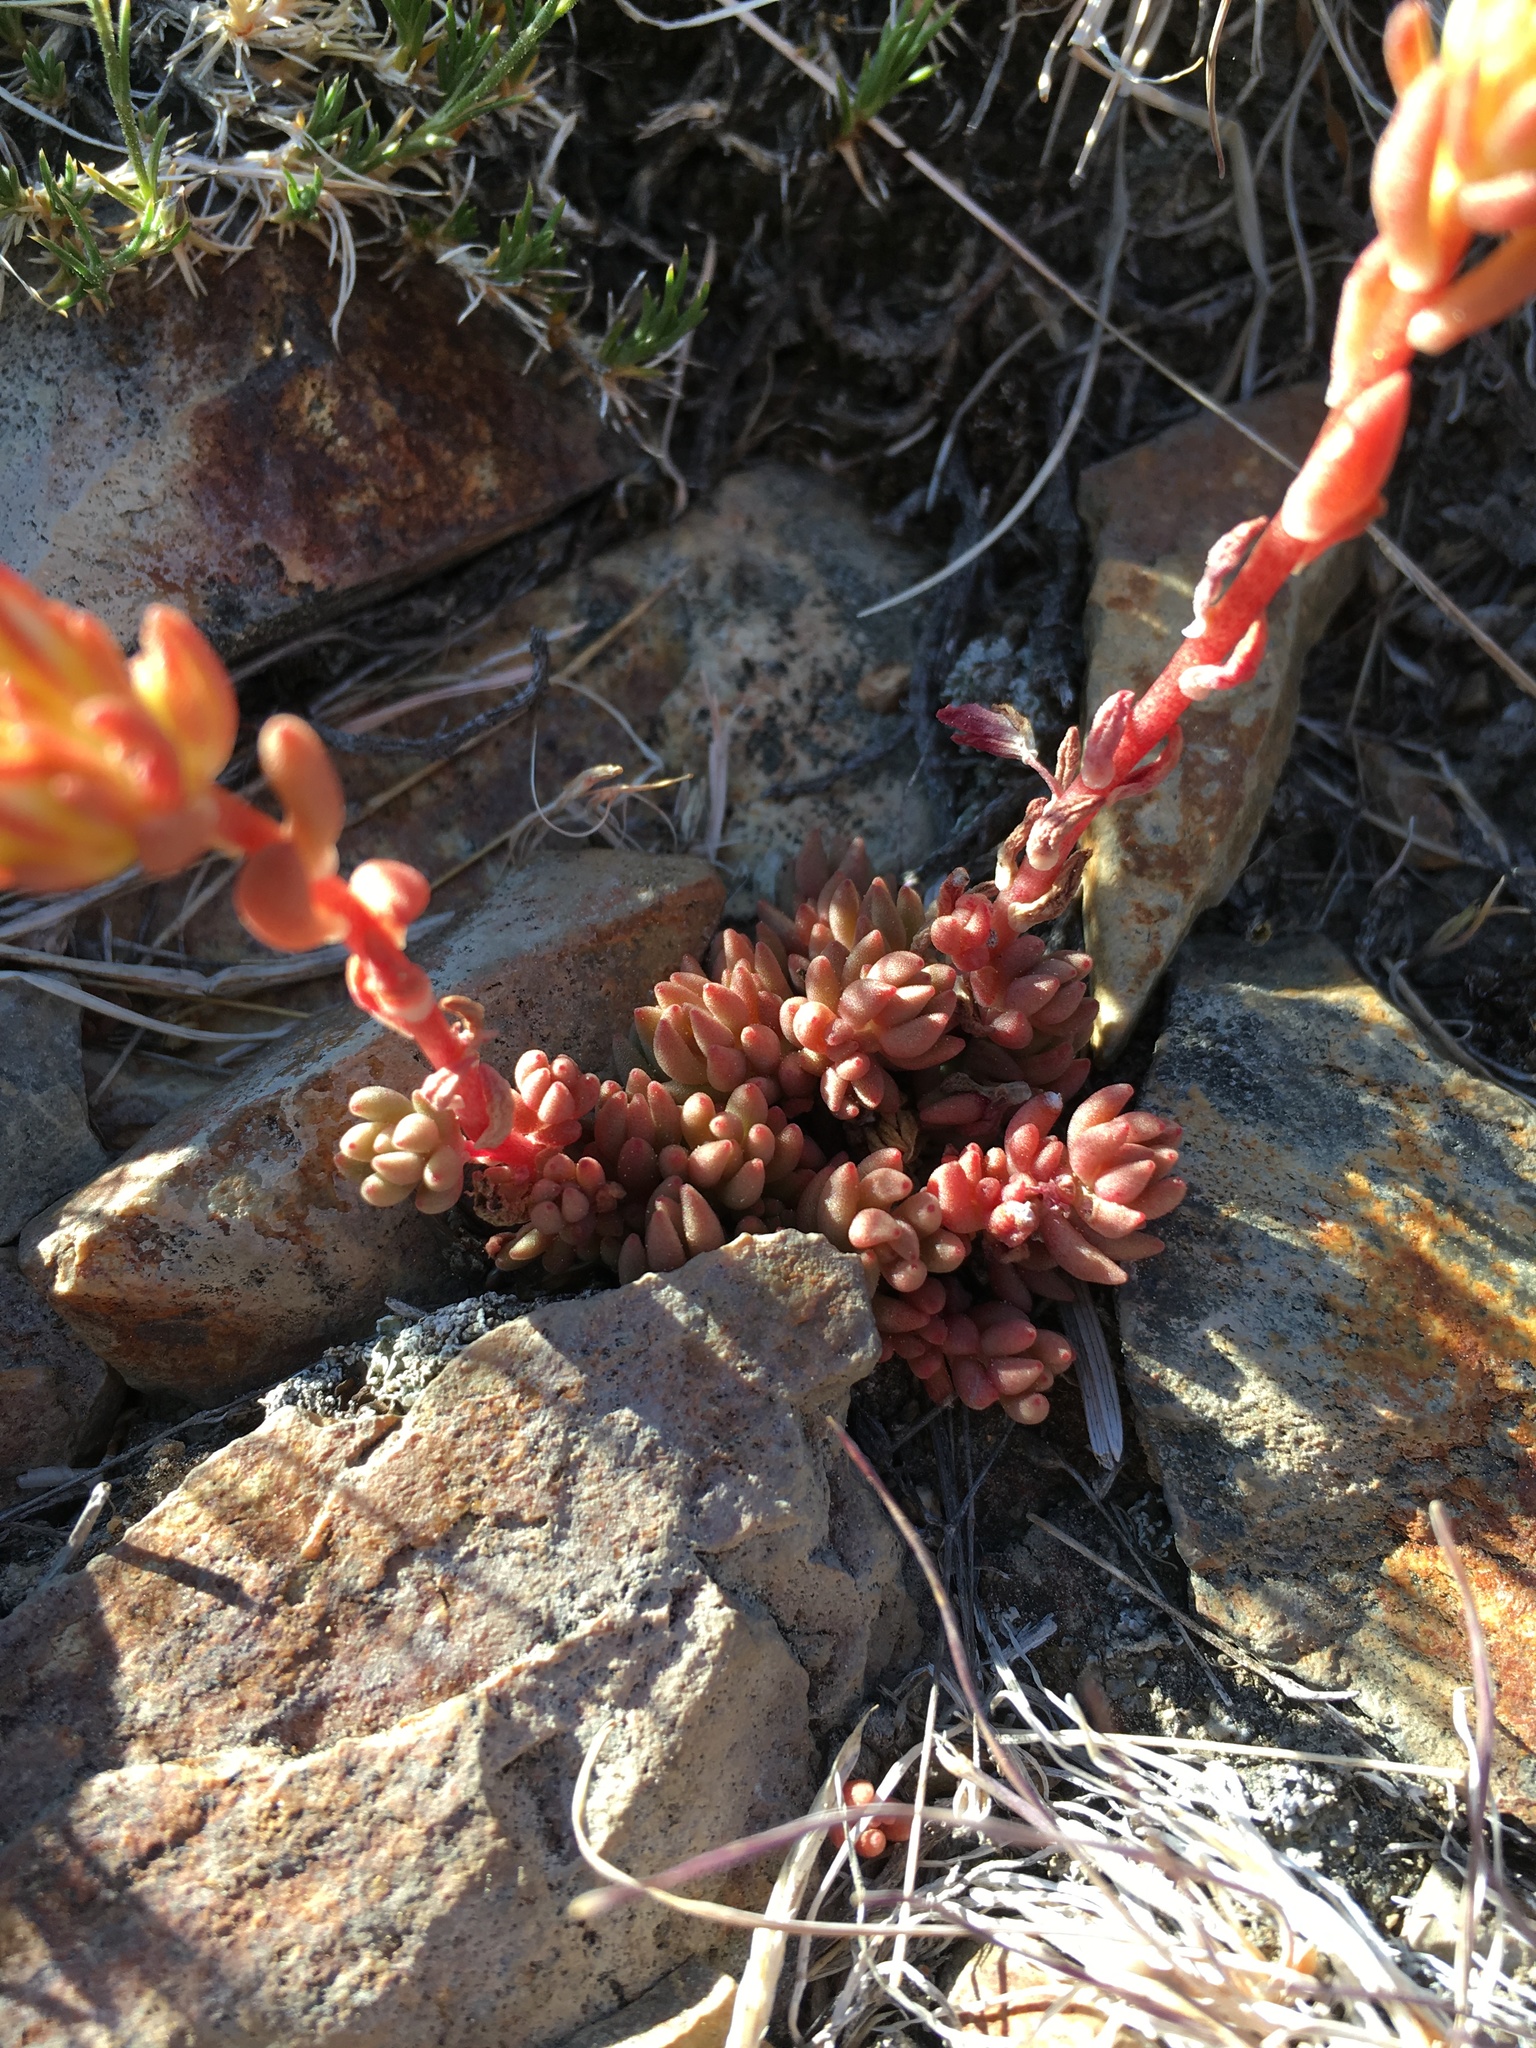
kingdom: Plantae
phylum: Tracheophyta
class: Magnoliopsida
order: Saxifragales
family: Crassulaceae
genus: Sedum
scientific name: Sedum lanceolatum
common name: Common stonecrop
